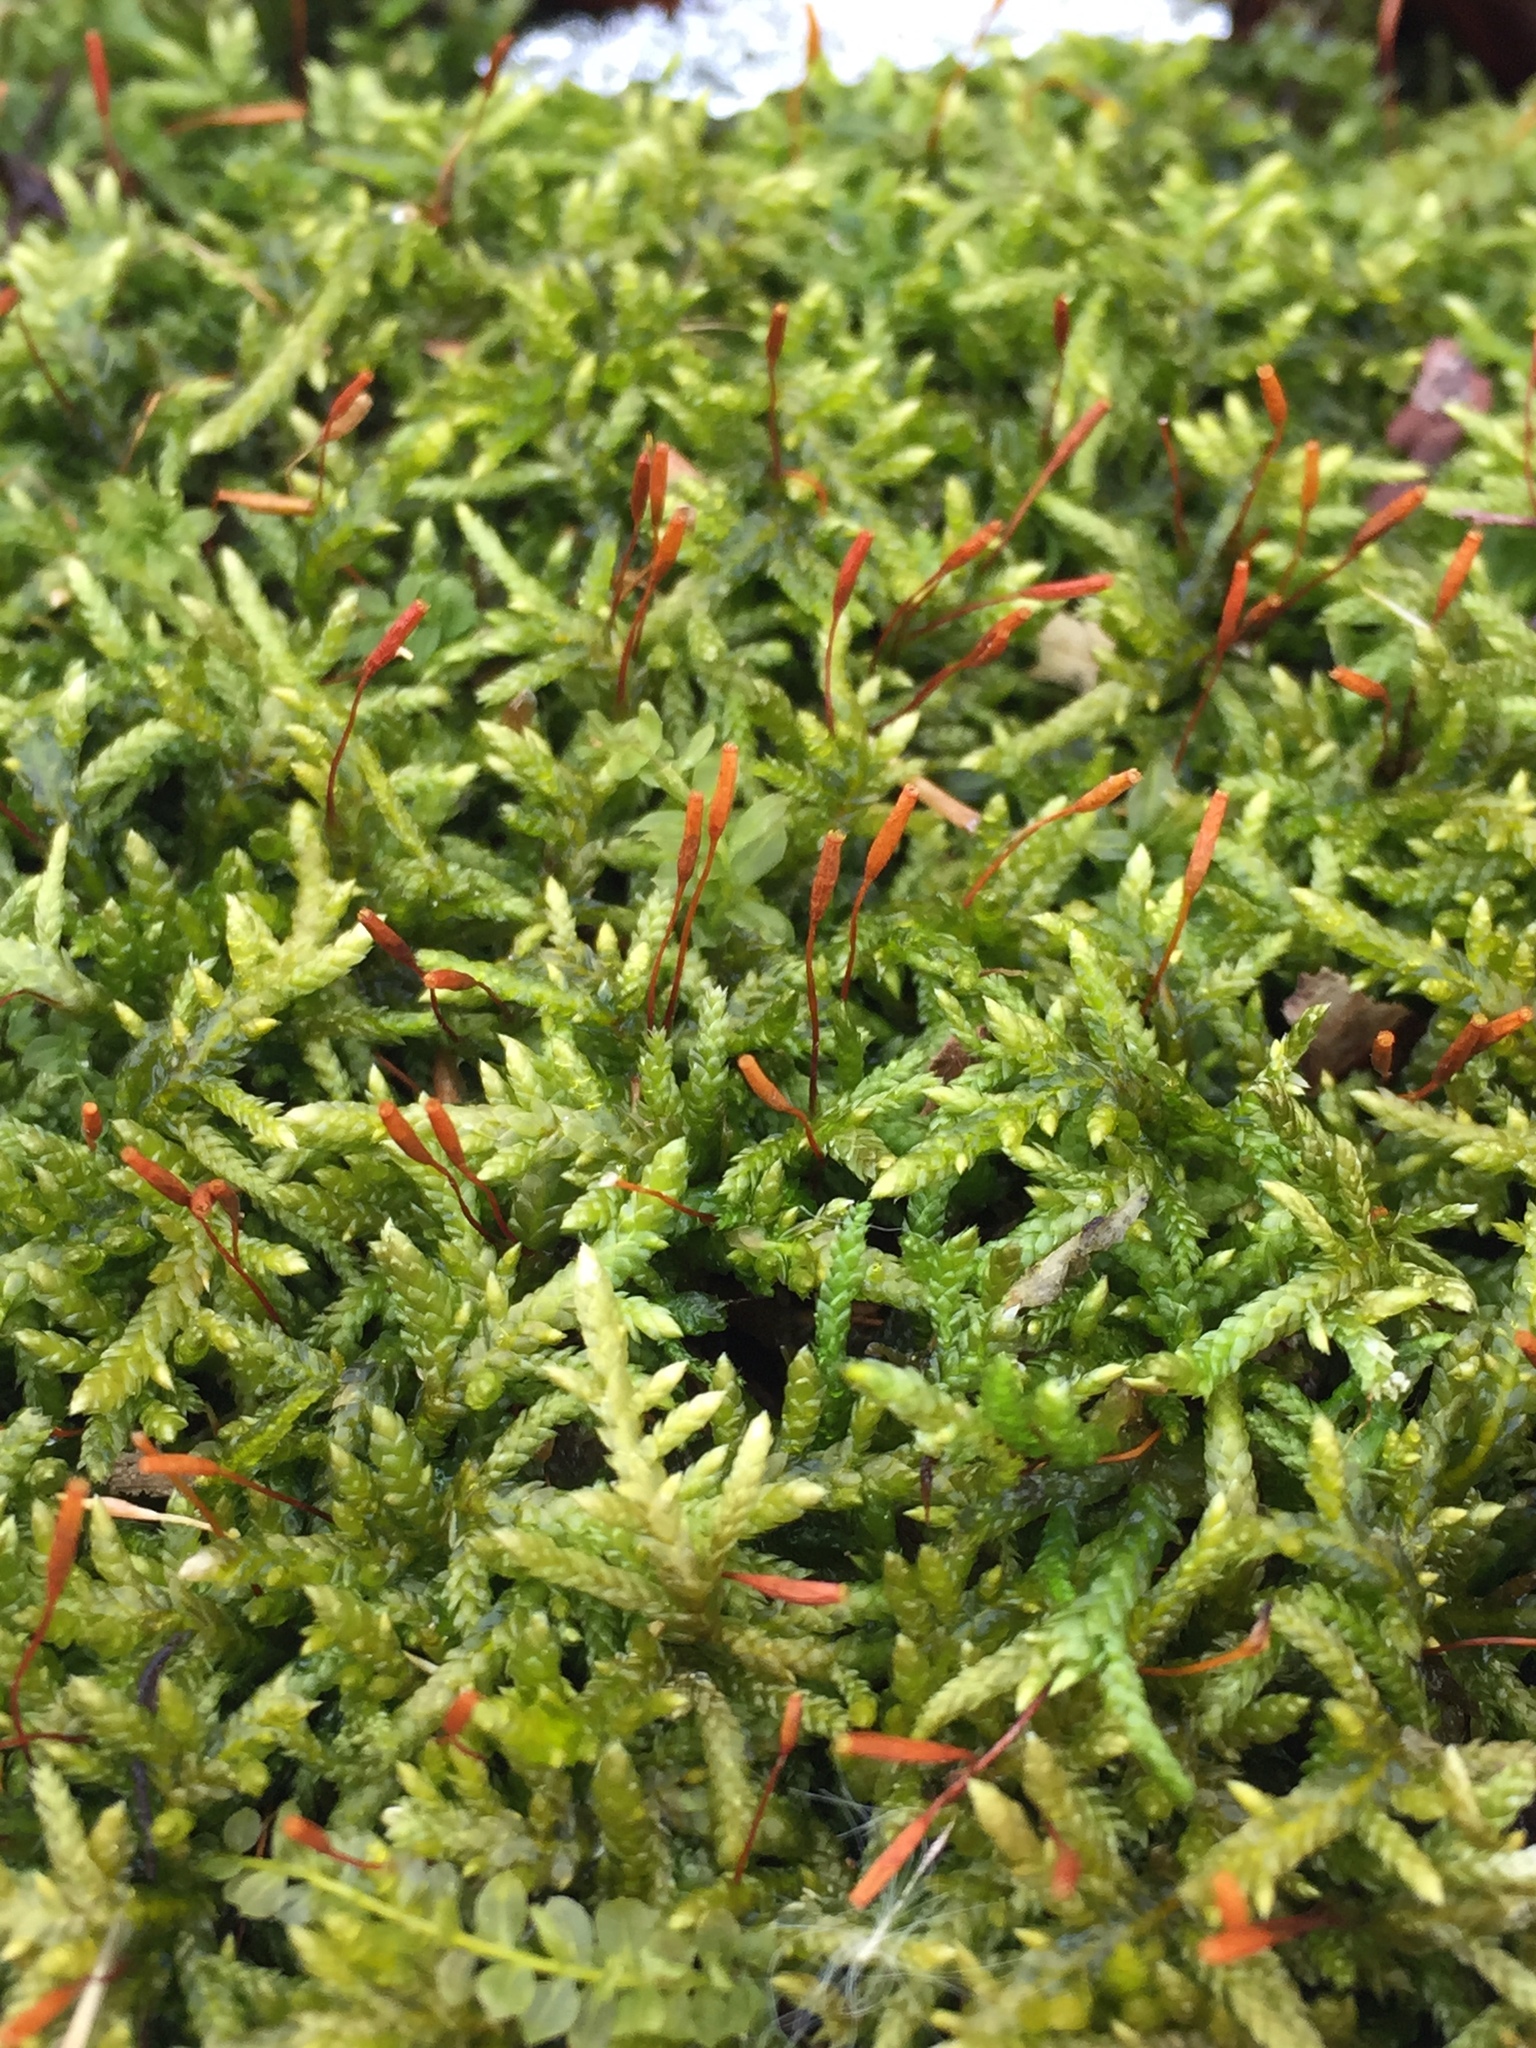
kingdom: Plantae
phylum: Bryophyta
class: Bryopsida
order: Hypnales
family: Entodontaceae
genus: Entodon
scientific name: Entodon seductrix
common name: Round-stemmed entodon moss
